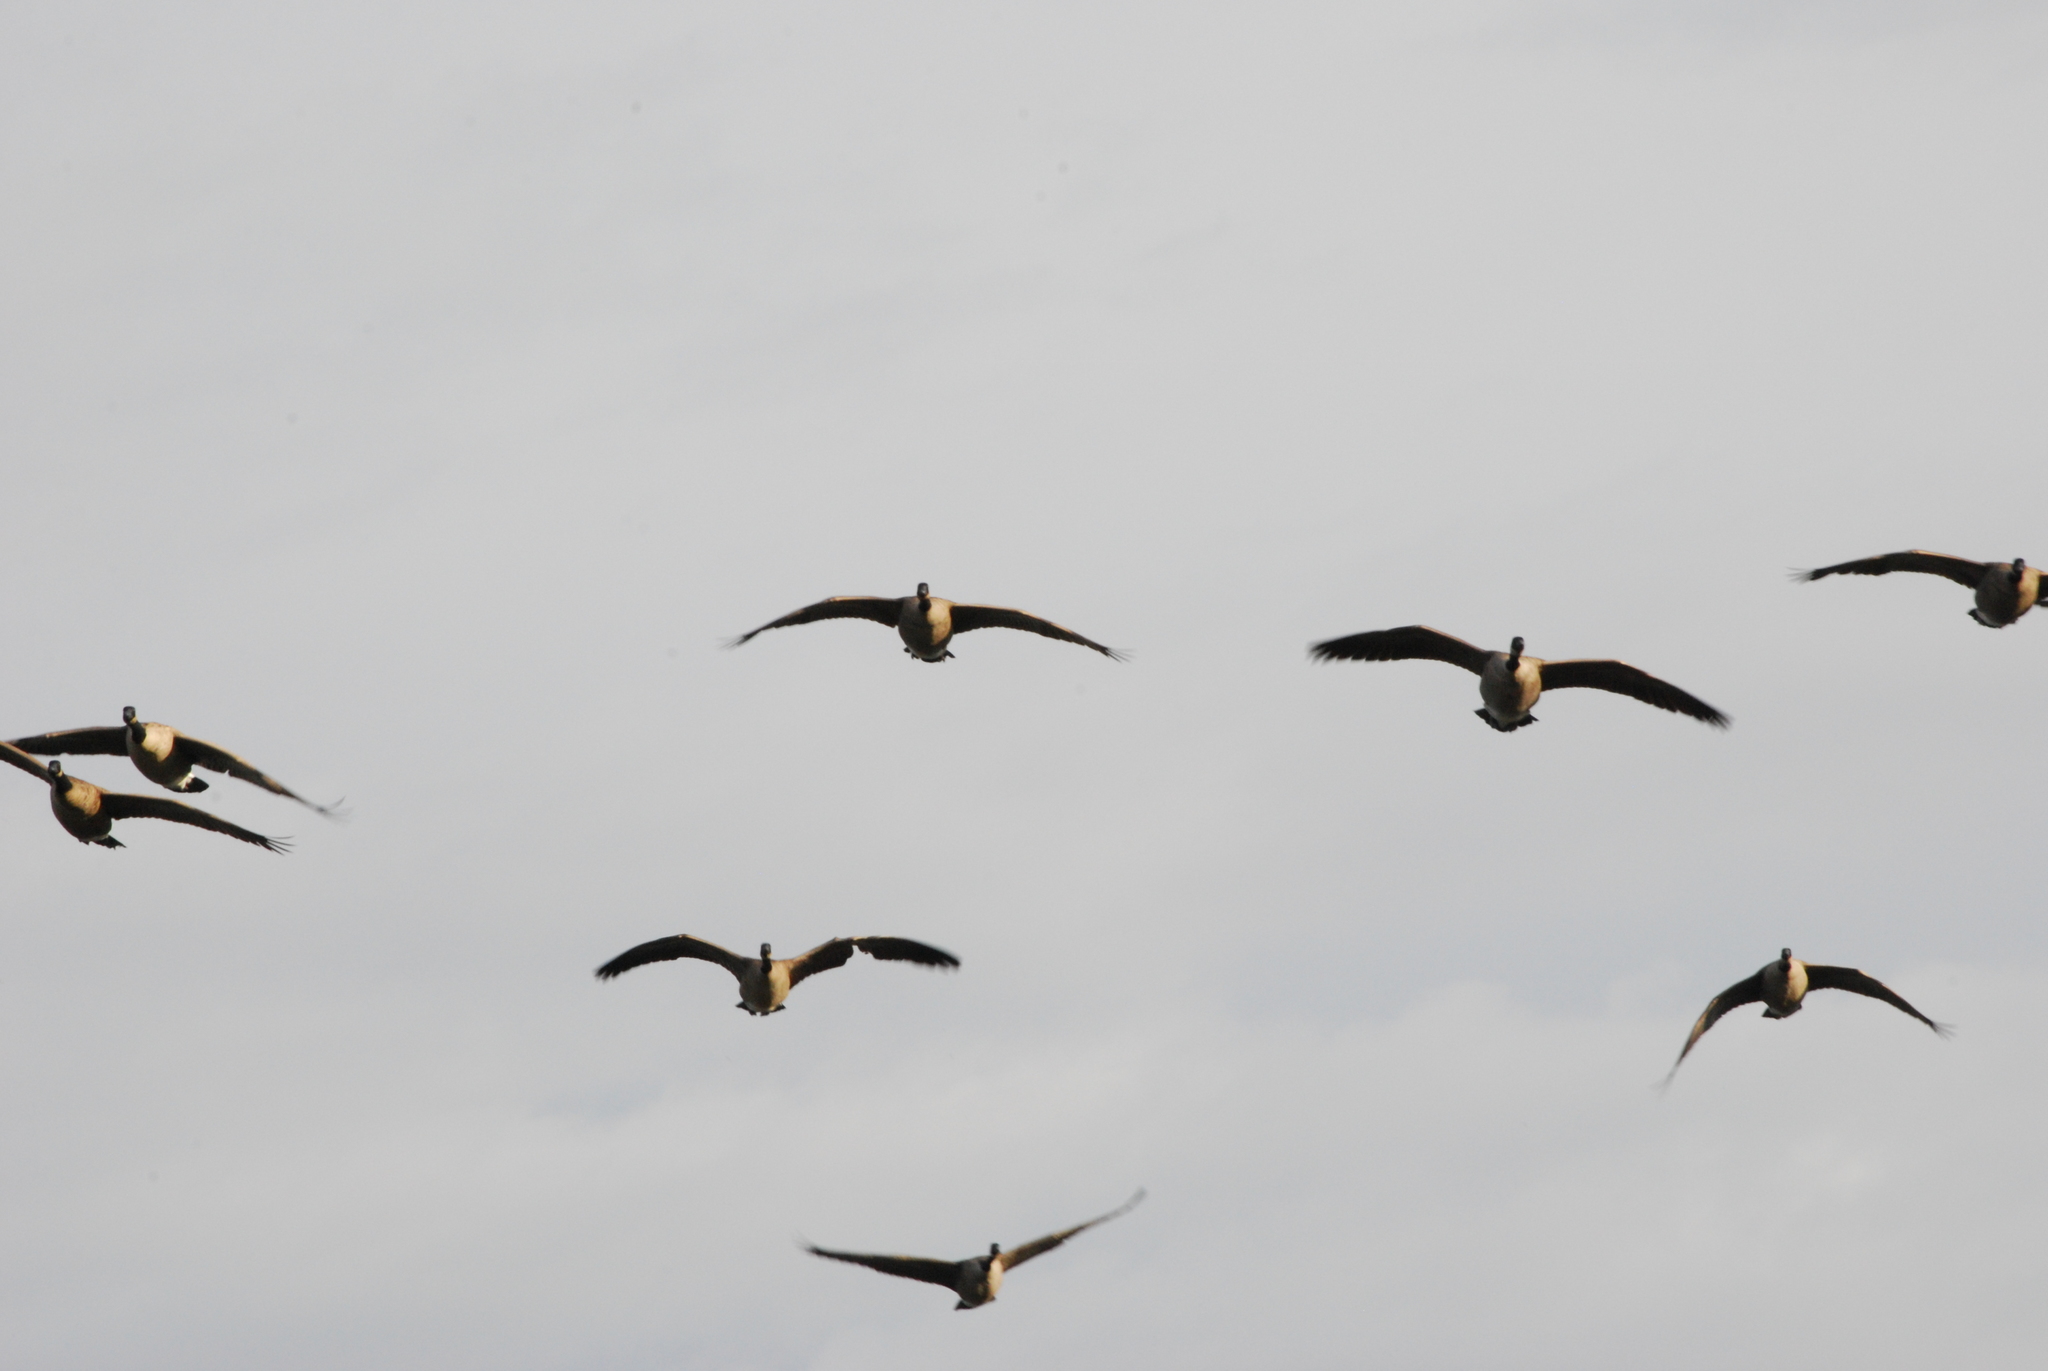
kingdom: Animalia
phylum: Chordata
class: Aves
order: Anseriformes
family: Anatidae
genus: Branta
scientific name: Branta canadensis
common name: Canada goose
